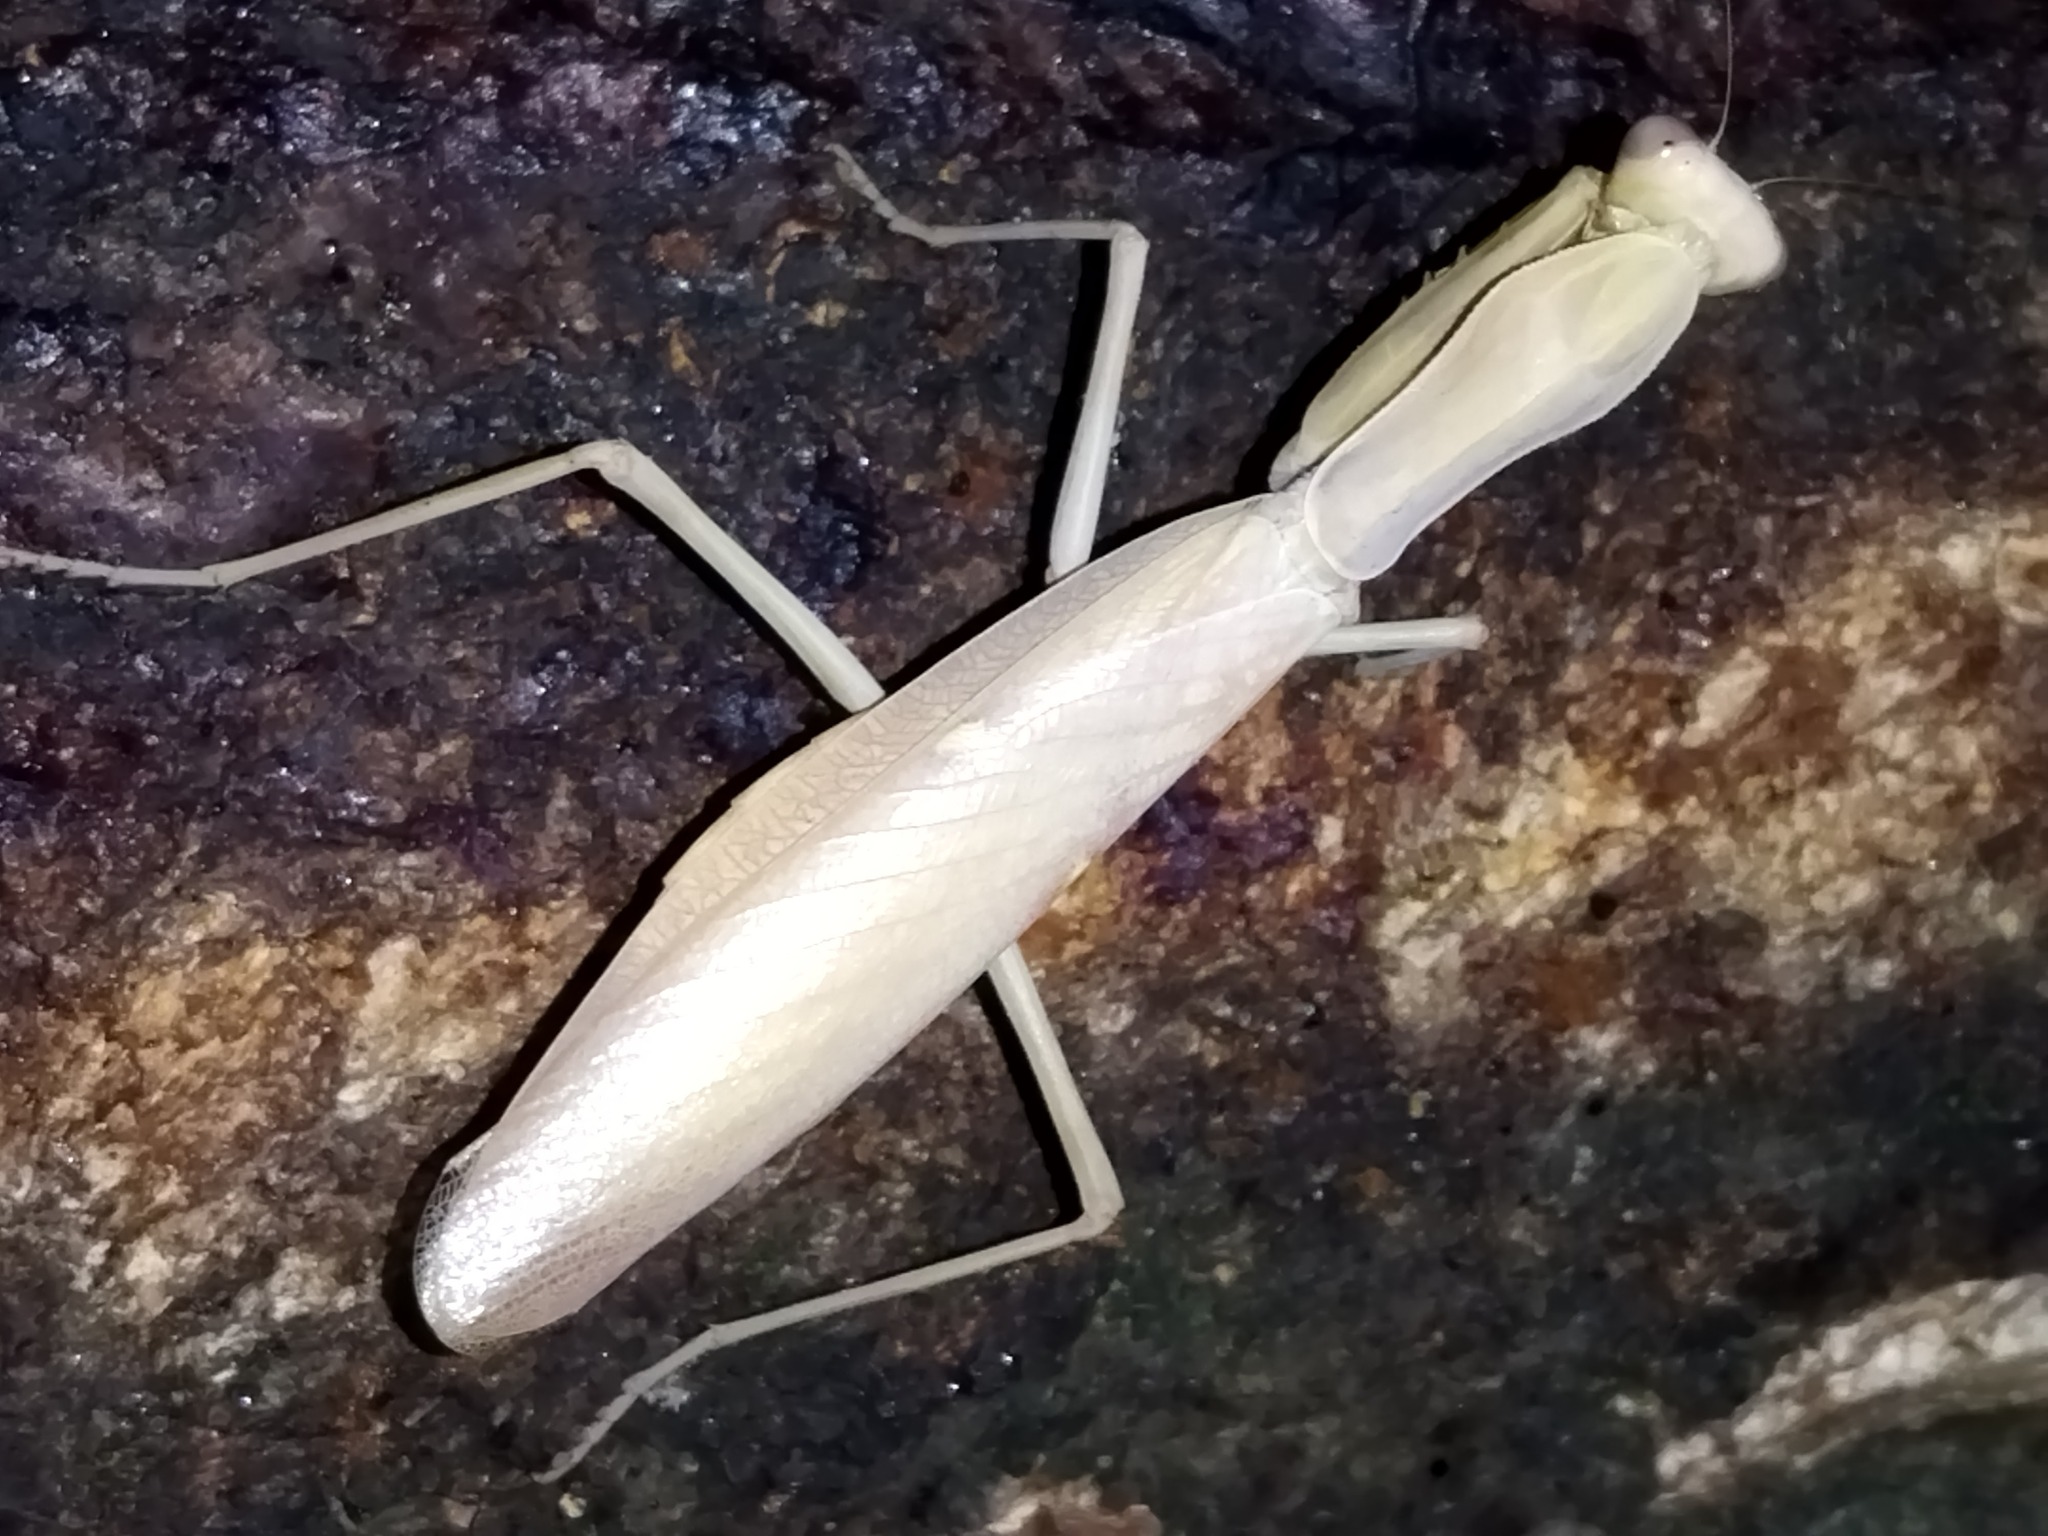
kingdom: Animalia
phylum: Arthropoda
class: Insecta
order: Mantodea
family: Mantidae
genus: Hierodula
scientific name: Hierodula transcaucasica
